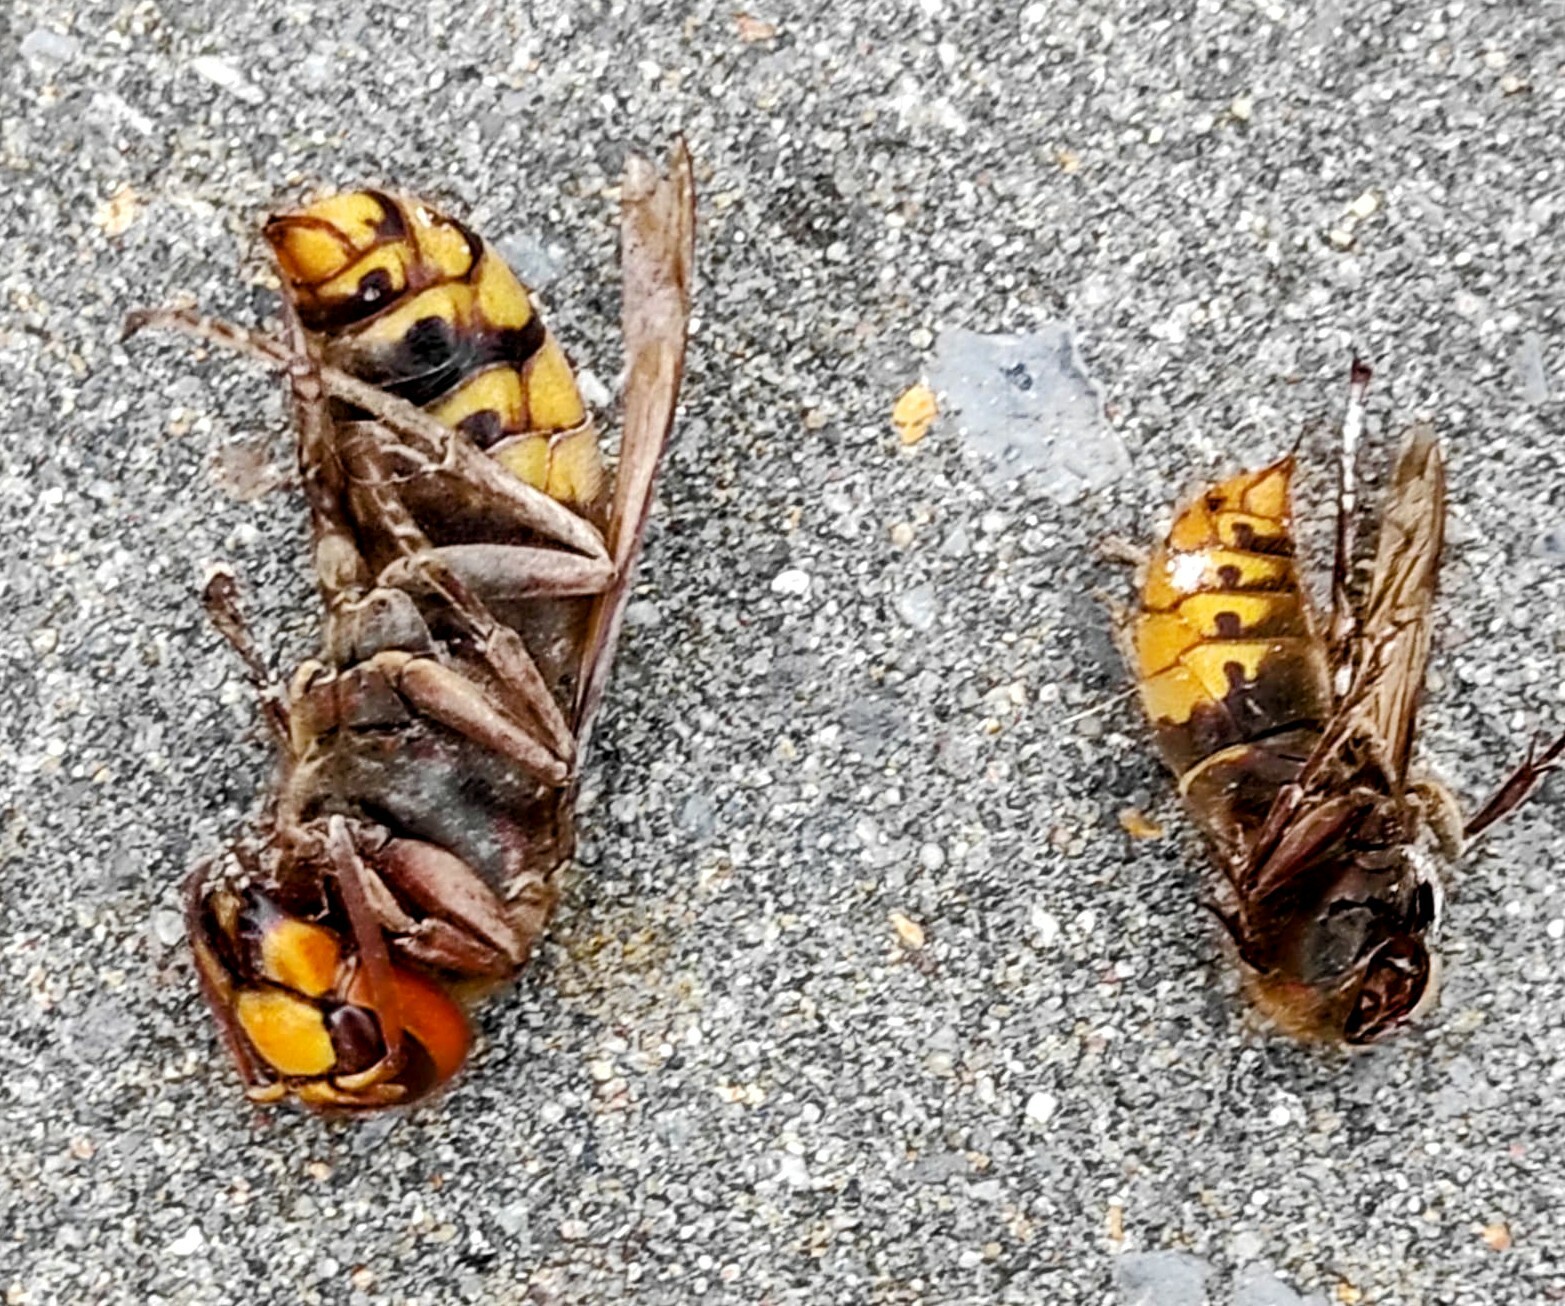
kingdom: Animalia
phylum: Arthropoda
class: Insecta
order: Hymenoptera
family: Vespidae
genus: Vespa
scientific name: Vespa crabro
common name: Hornet
